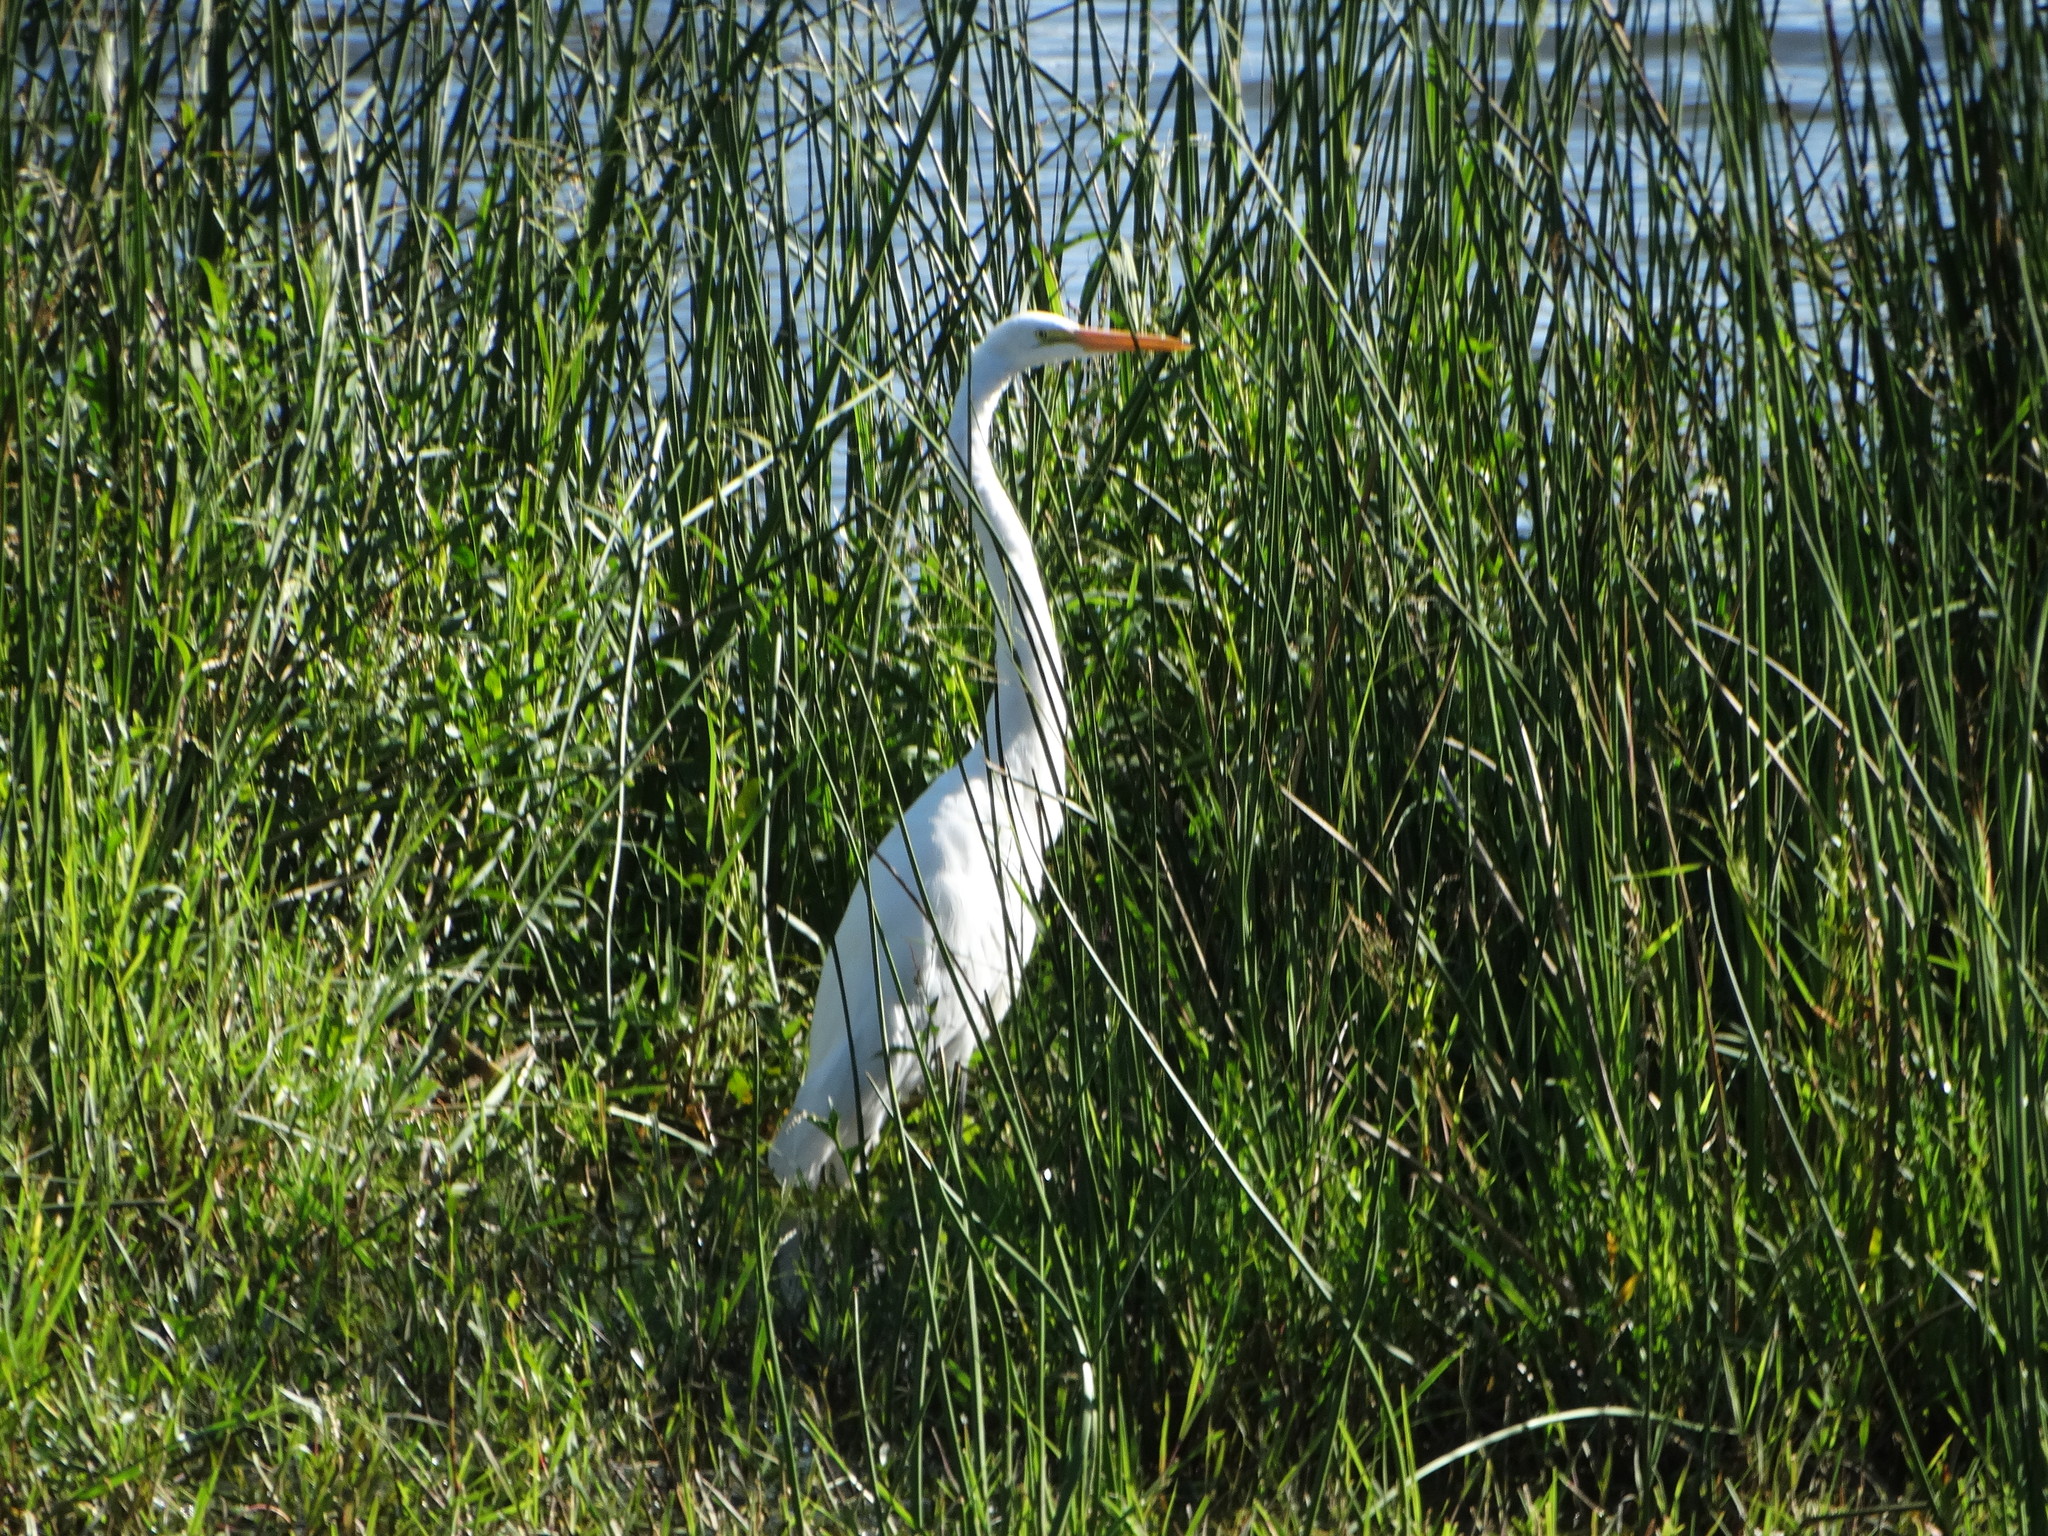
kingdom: Animalia
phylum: Chordata
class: Aves
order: Pelecaniformes
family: Ardeidae
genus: Ardea
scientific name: Ardea alba
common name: Great egret
